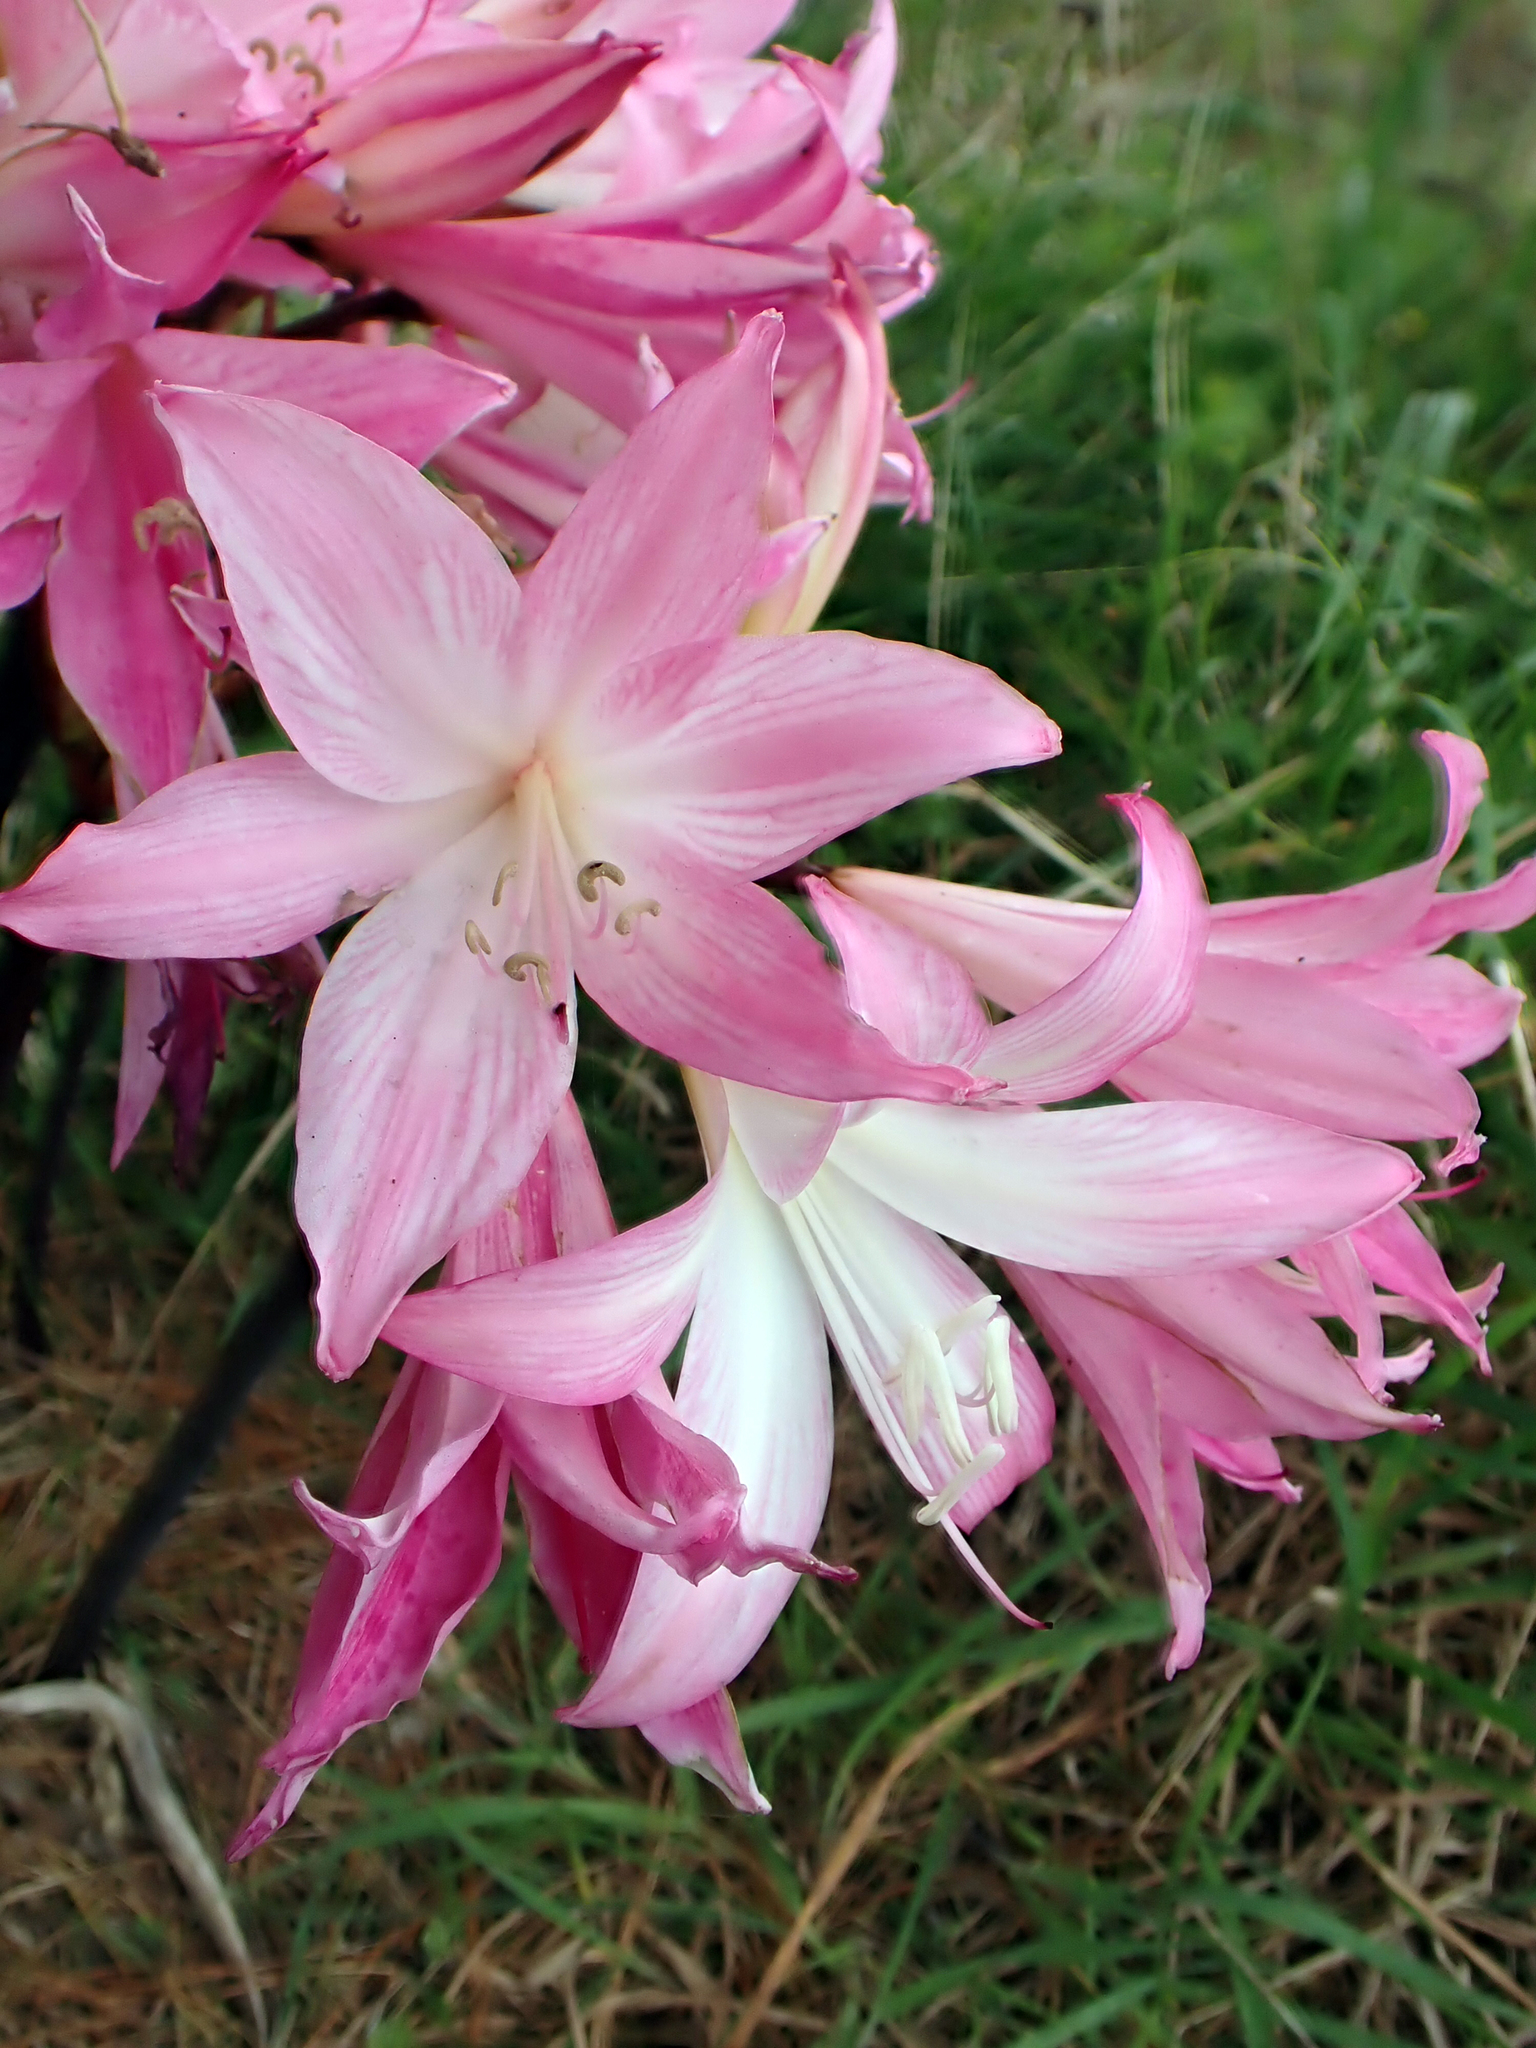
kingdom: Plantae
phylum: Tracheophyta
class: Liliopsida
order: Asparagales
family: Amaryllidaceae
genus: Amaryllis
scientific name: Amaryllis belladonna
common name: Jersey lily
